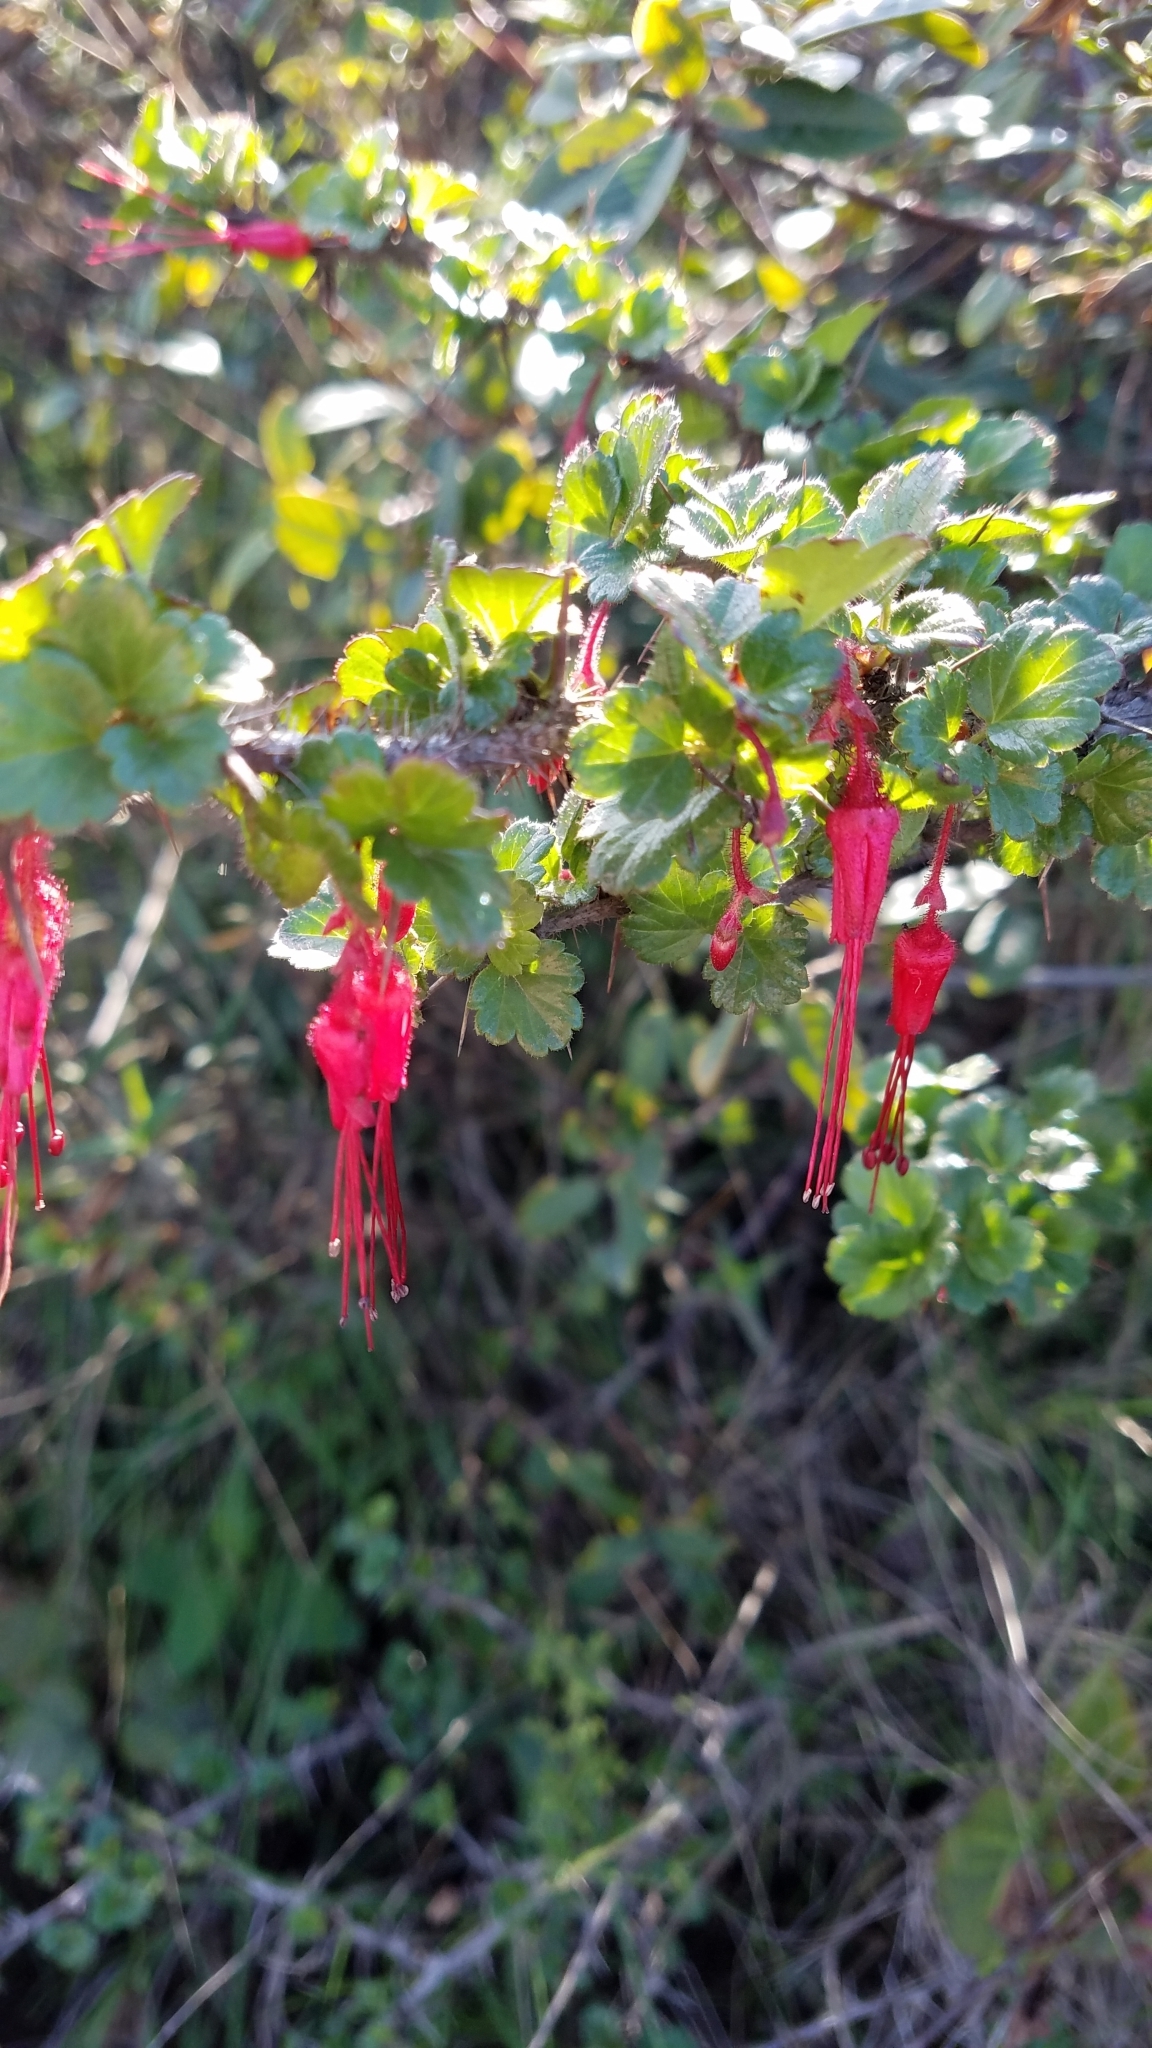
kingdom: Plantae
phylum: Tracheophyta
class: Magnoliopsida
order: Saxifragales
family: Grossulariaceae
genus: Ribes
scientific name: Ribes speciosum
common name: Fuchsia-flower gooseberry
